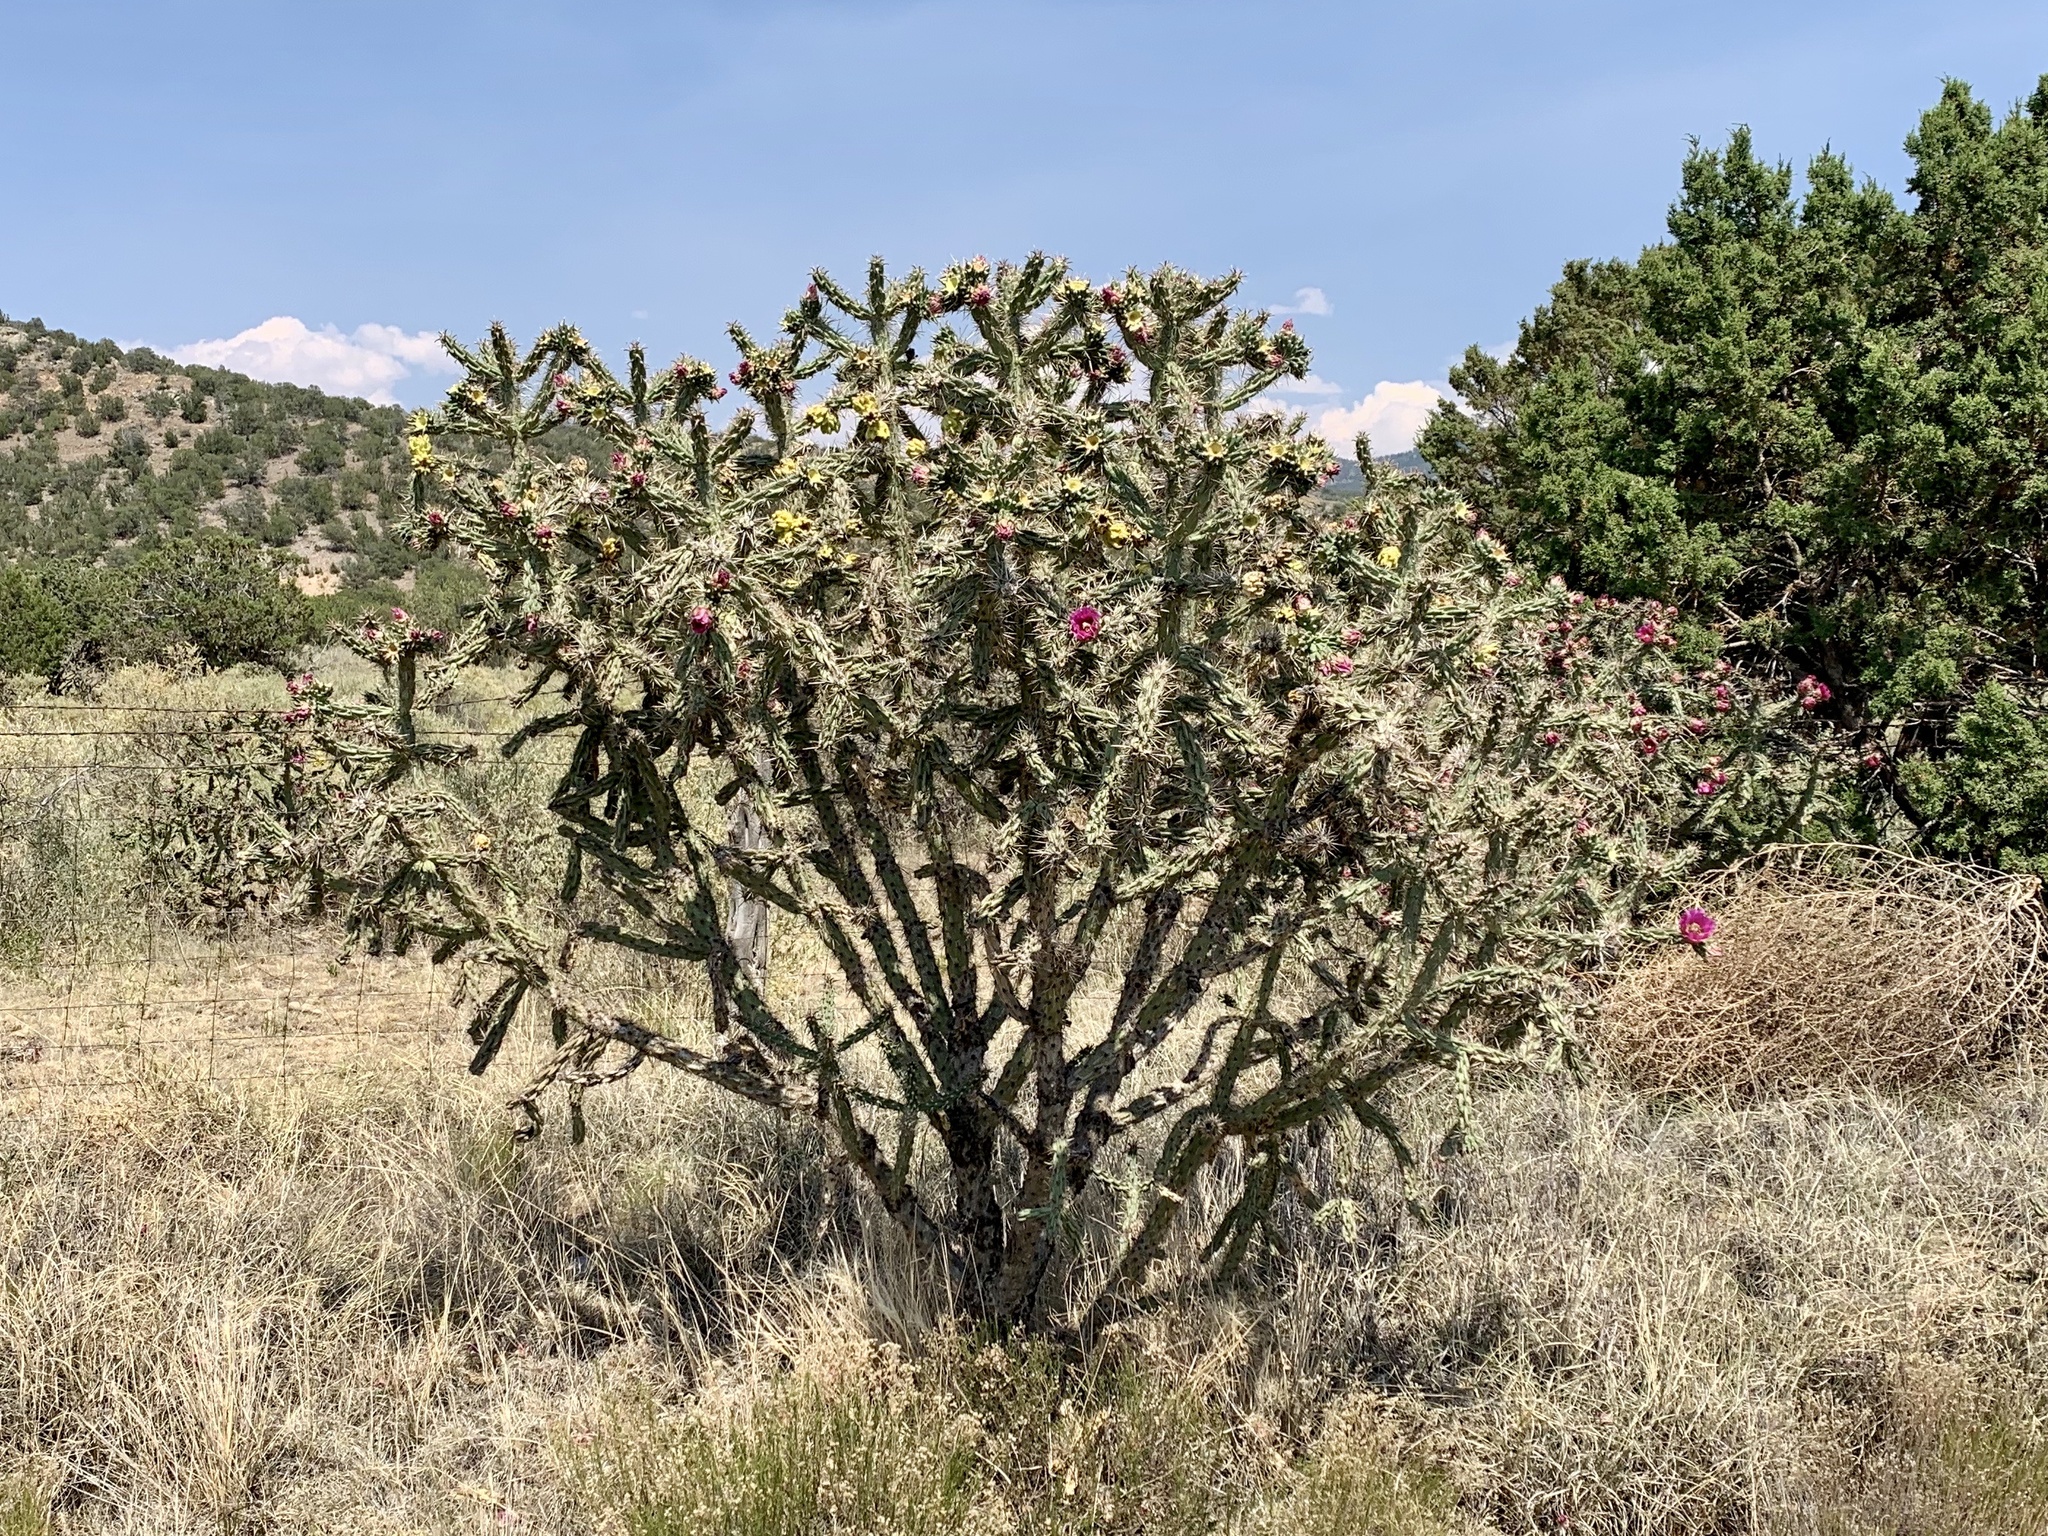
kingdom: Plantae
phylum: Tracheophyta
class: Magnoliopsida
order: Caryophyllales
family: Cactaceae
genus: Cylindropuntia
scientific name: Cylindropuntia imbricata
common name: Candelabrum cactus
